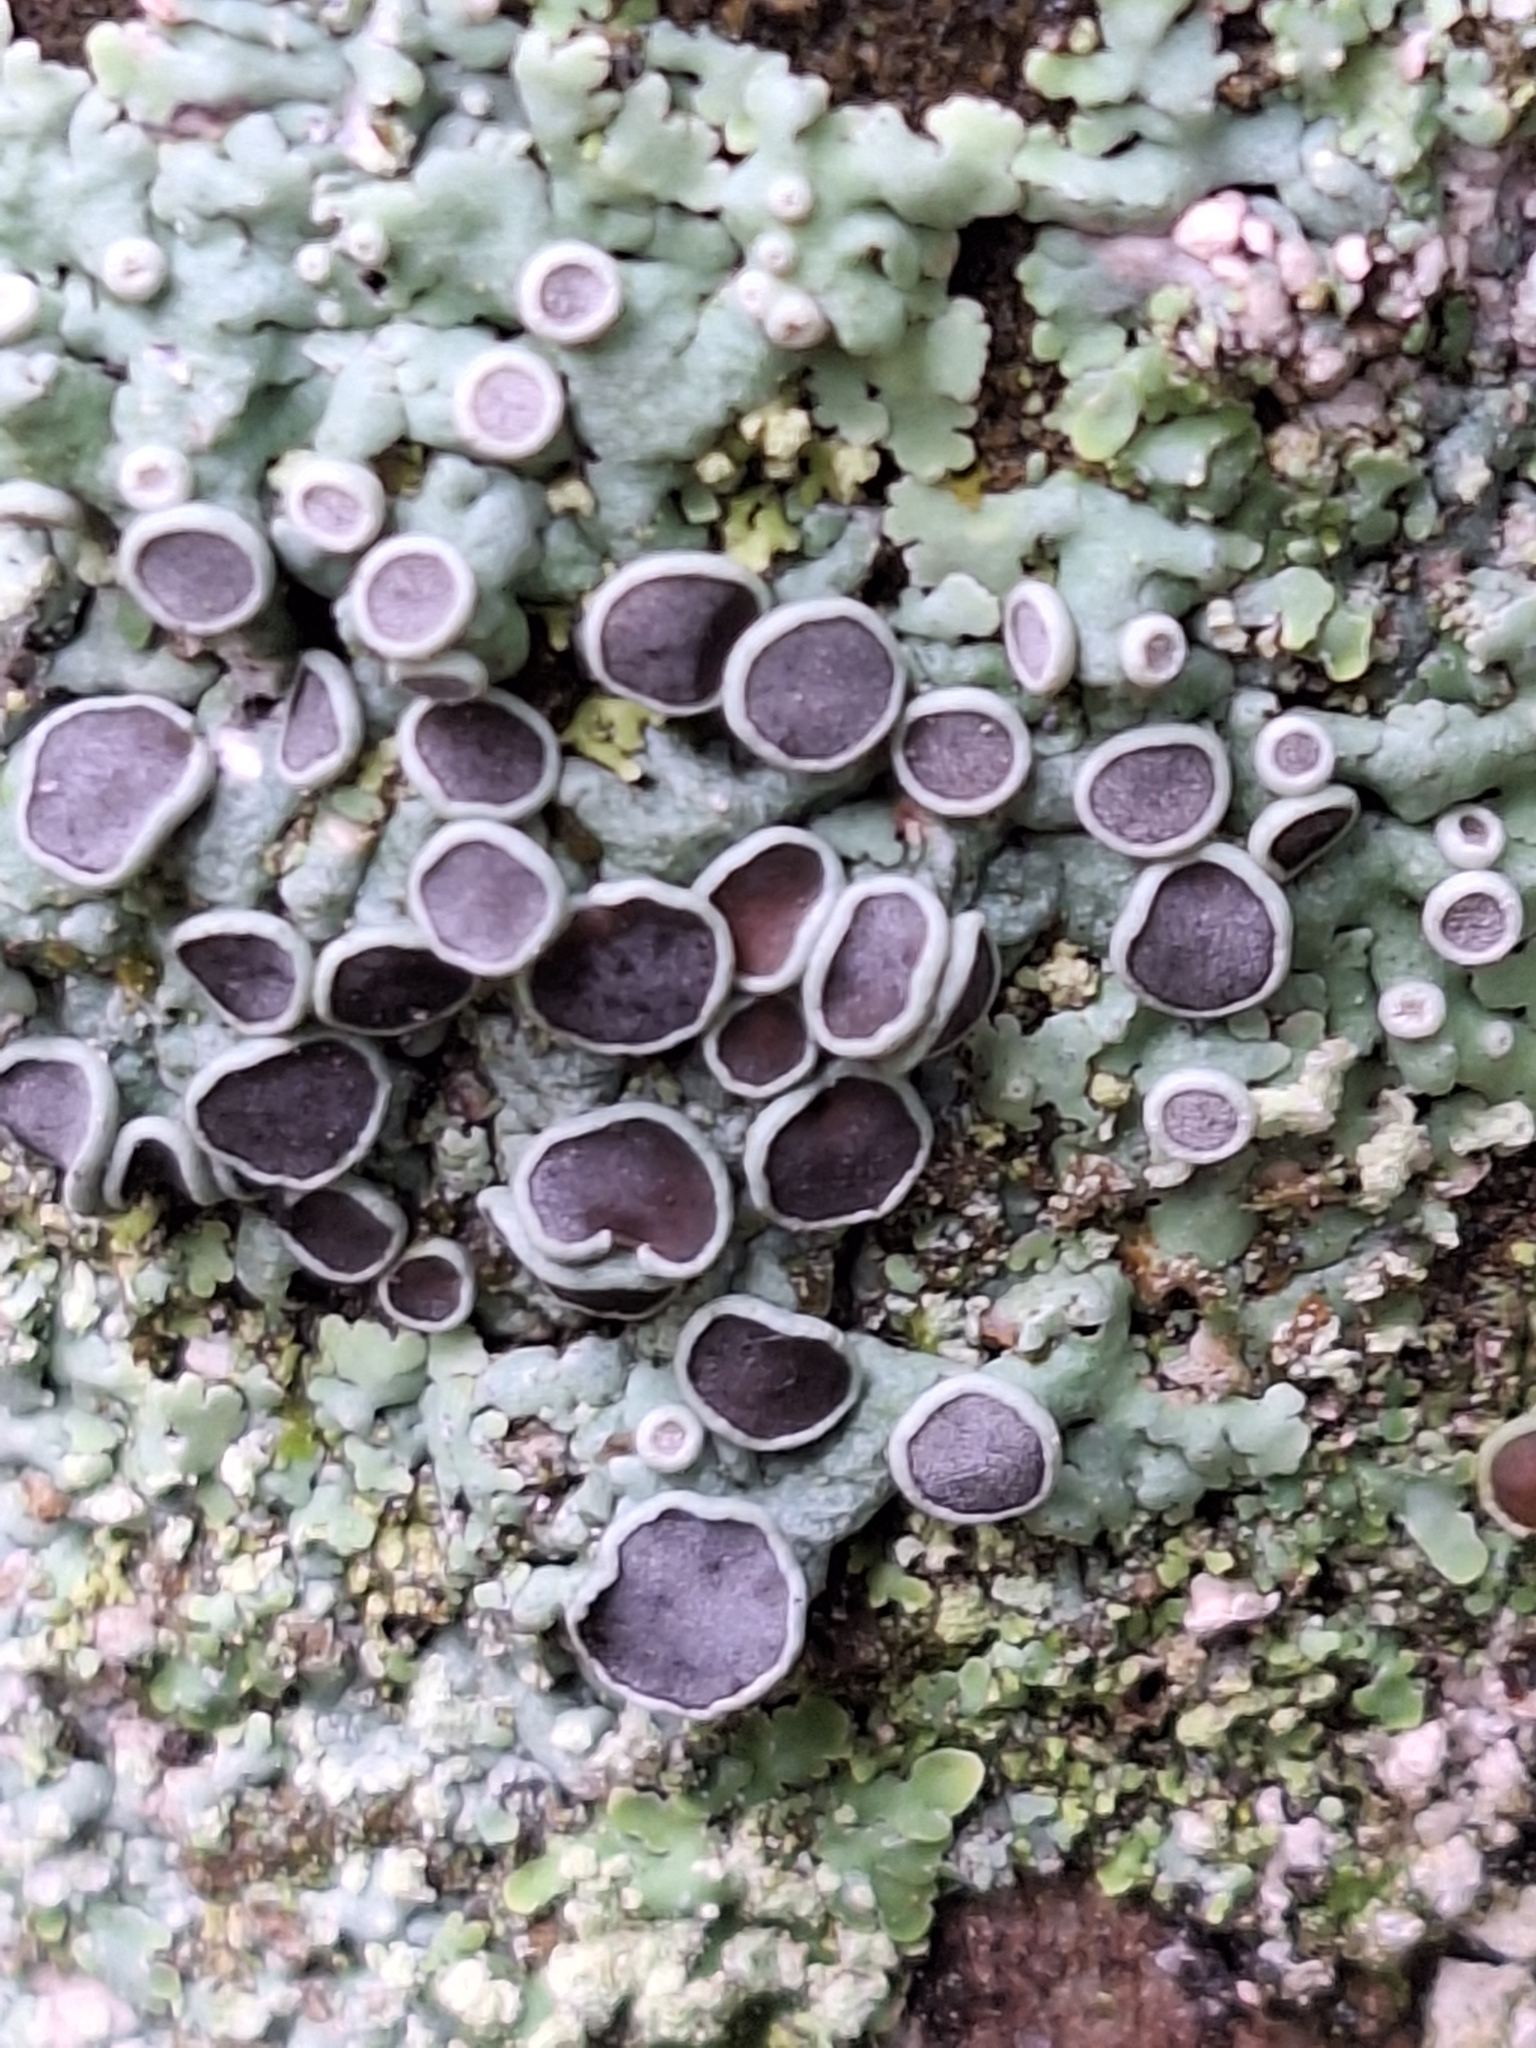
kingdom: Fungi
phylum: Ascomycota
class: Lecanoromycetes
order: Caliciales
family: Physciaceae
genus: Physcia
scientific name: Physcia aipolia
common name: Hoary rosette lichen
